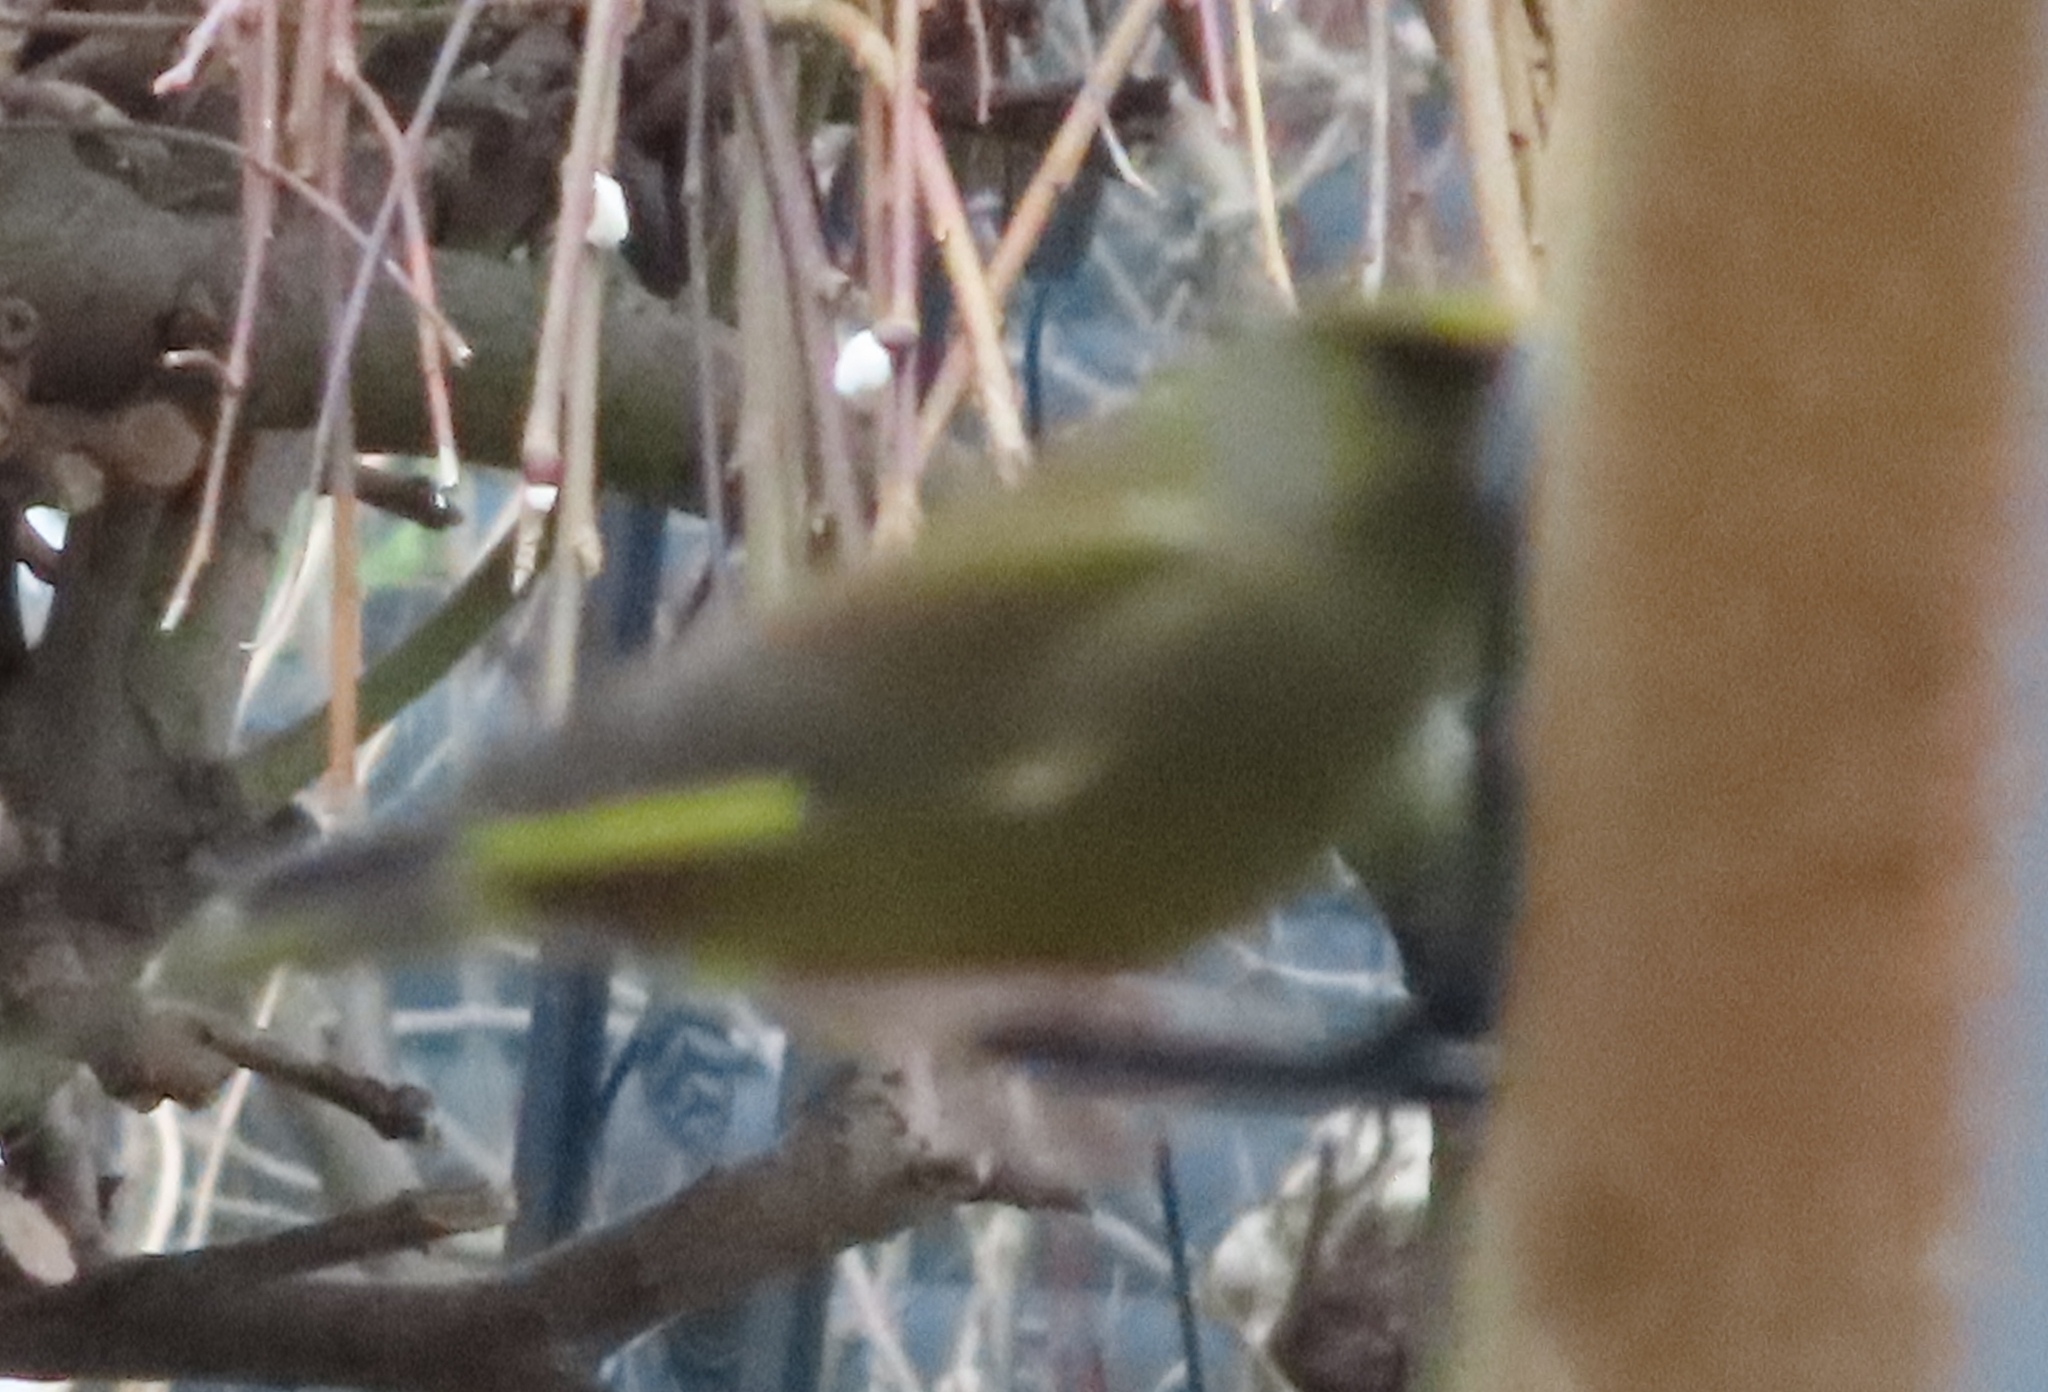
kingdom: Plantae
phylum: Tracheophyta
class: Liliopsida
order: Poales
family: Poaceae
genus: Chloris
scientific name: Chloris chloris
